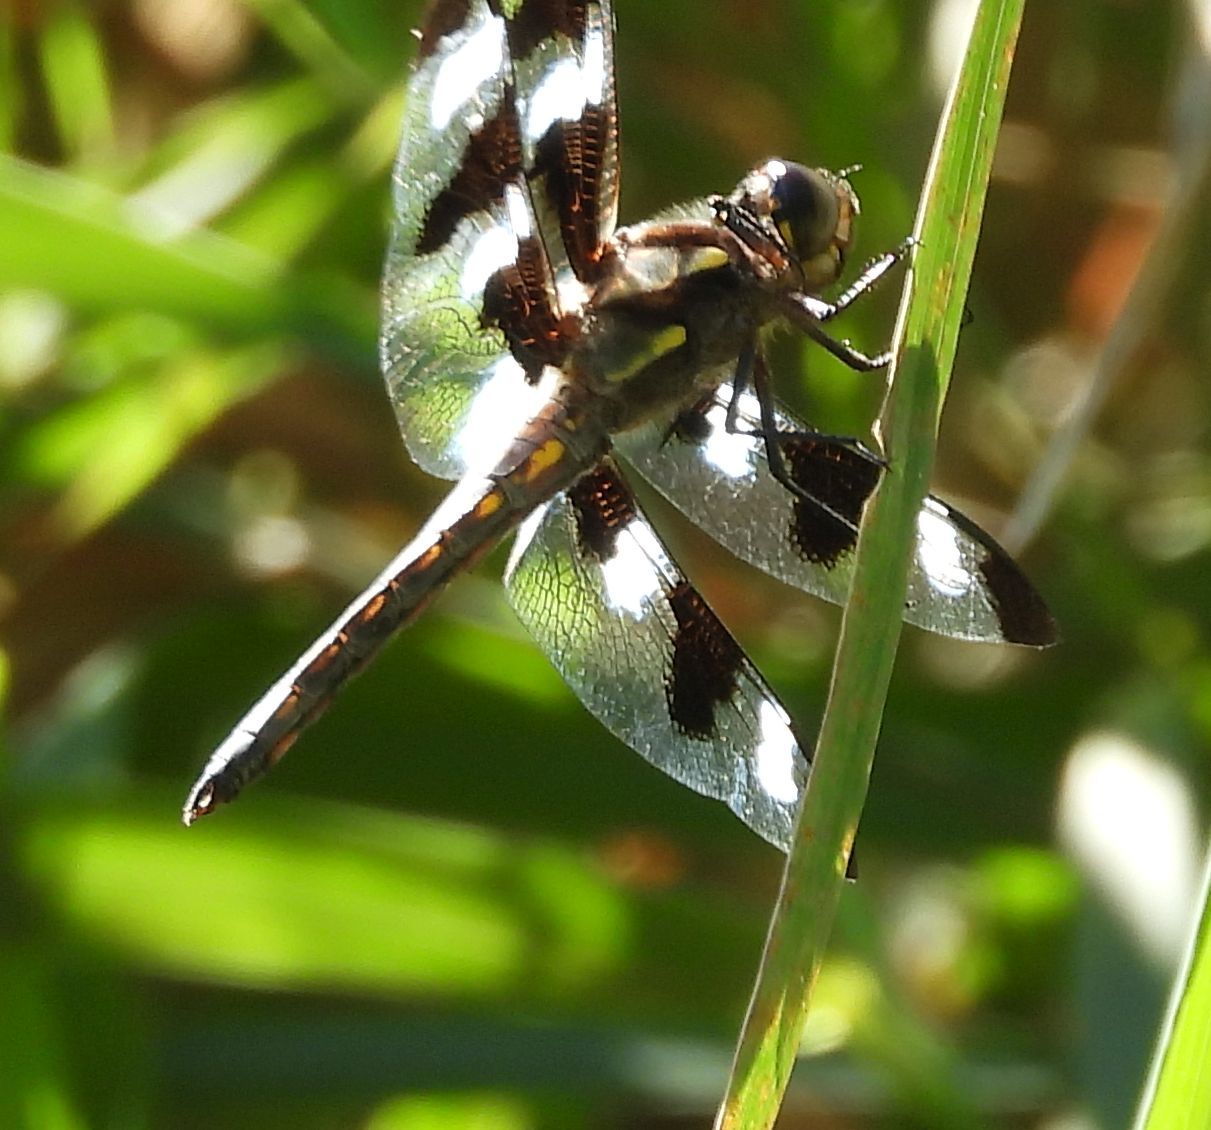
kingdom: Animalia
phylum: Arthropoda
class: Insecta
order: Odonata
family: Libellulidae
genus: Libellula
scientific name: Libellula pulchella
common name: Twelve-spotted skimmer
